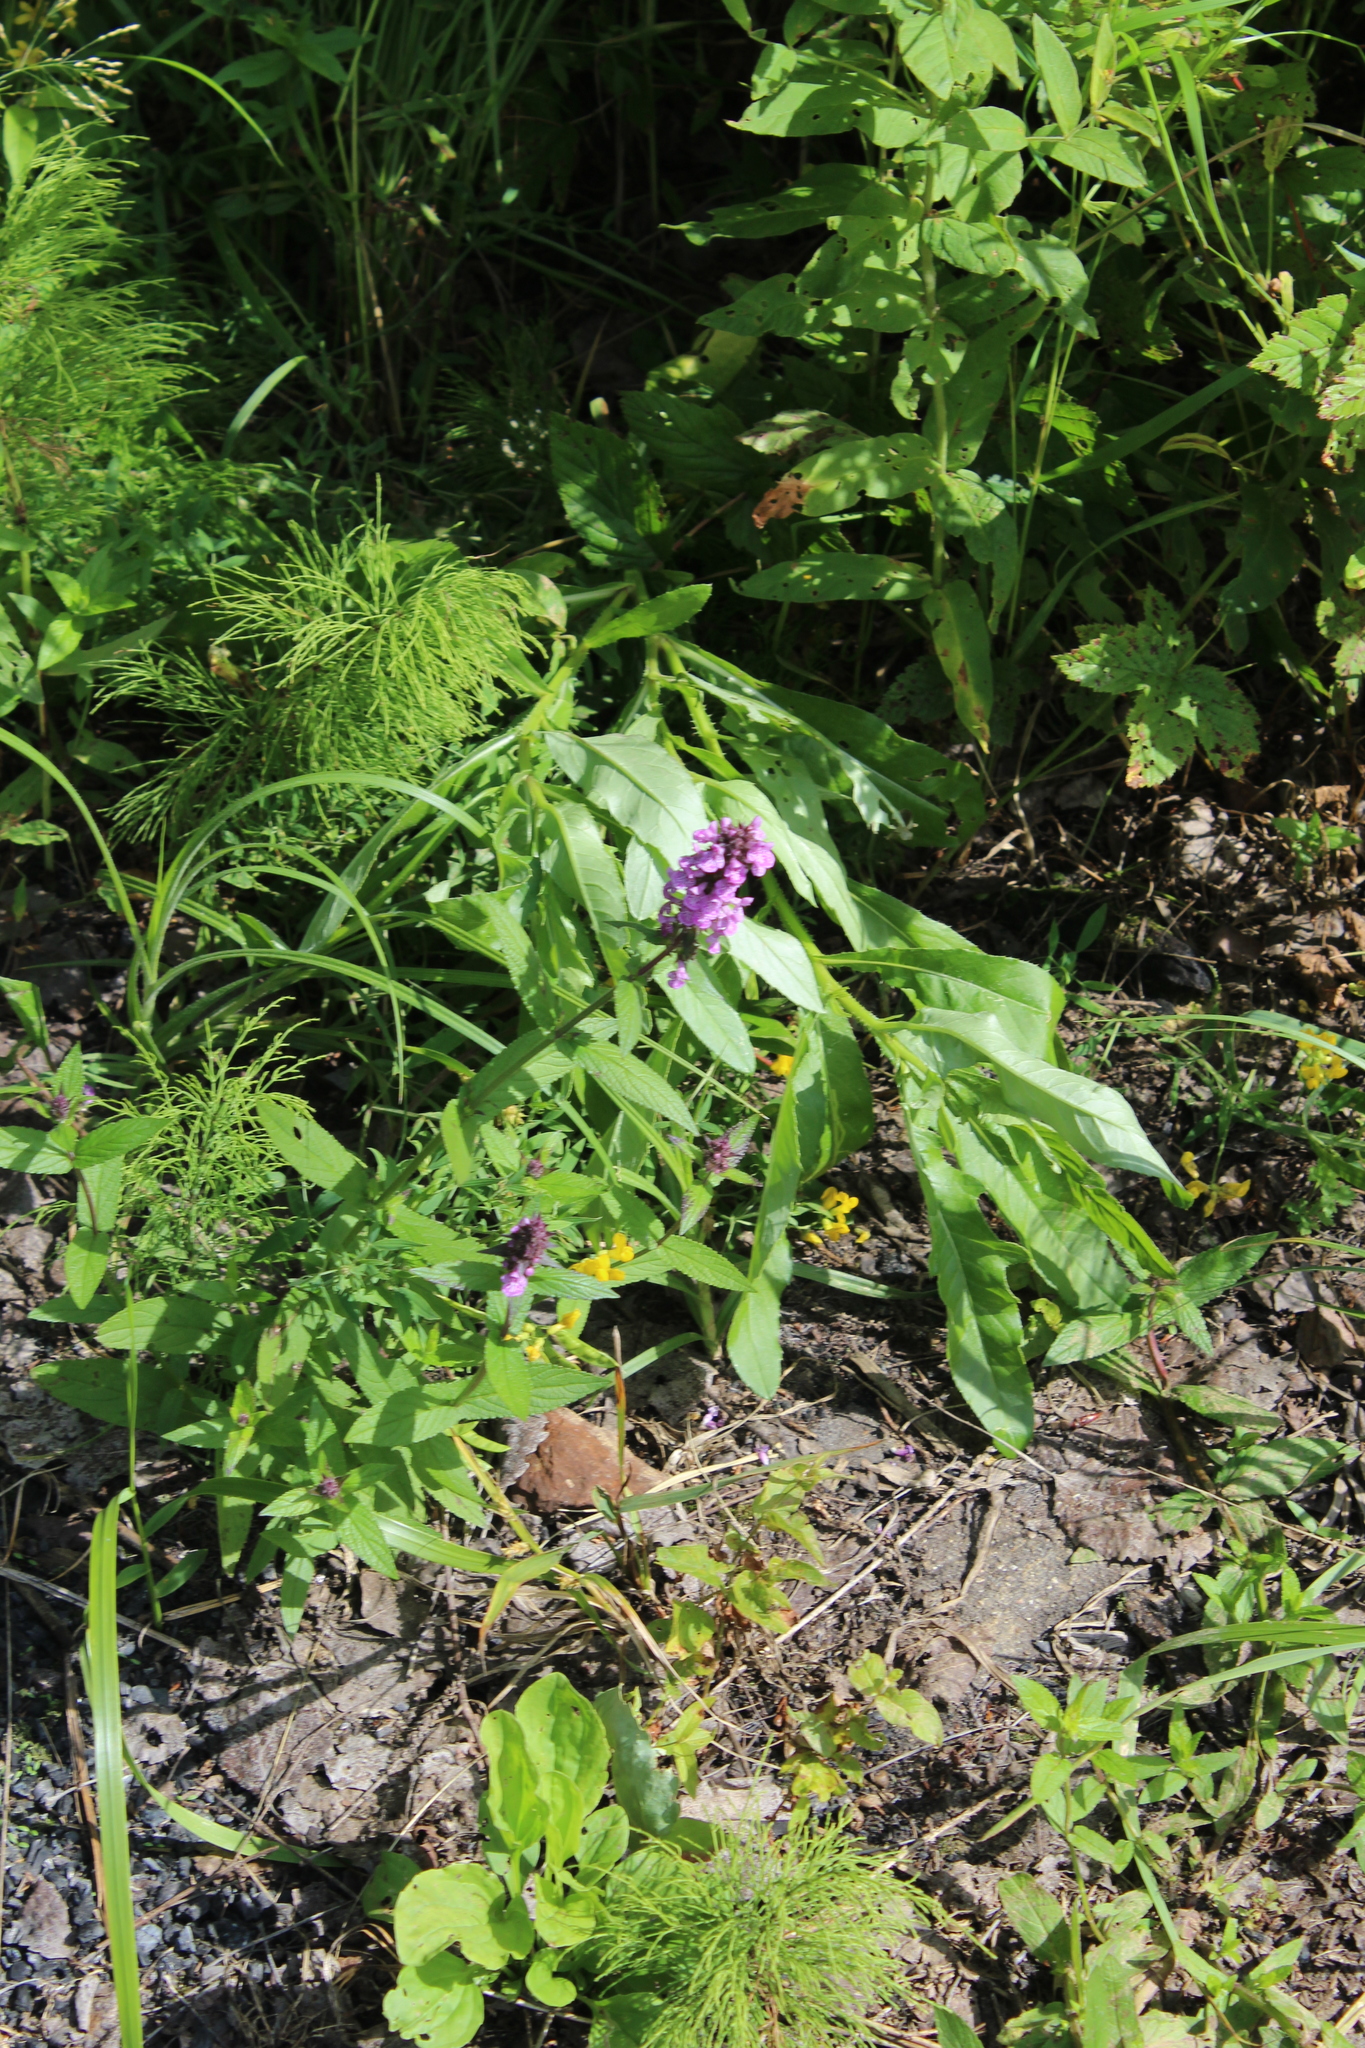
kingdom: Plantae
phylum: Tracheophyta
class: Magnoliopsida
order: Lamiales
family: Lamiaceae
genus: Stachys
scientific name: Stachys palustris
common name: Marsh woundwort
